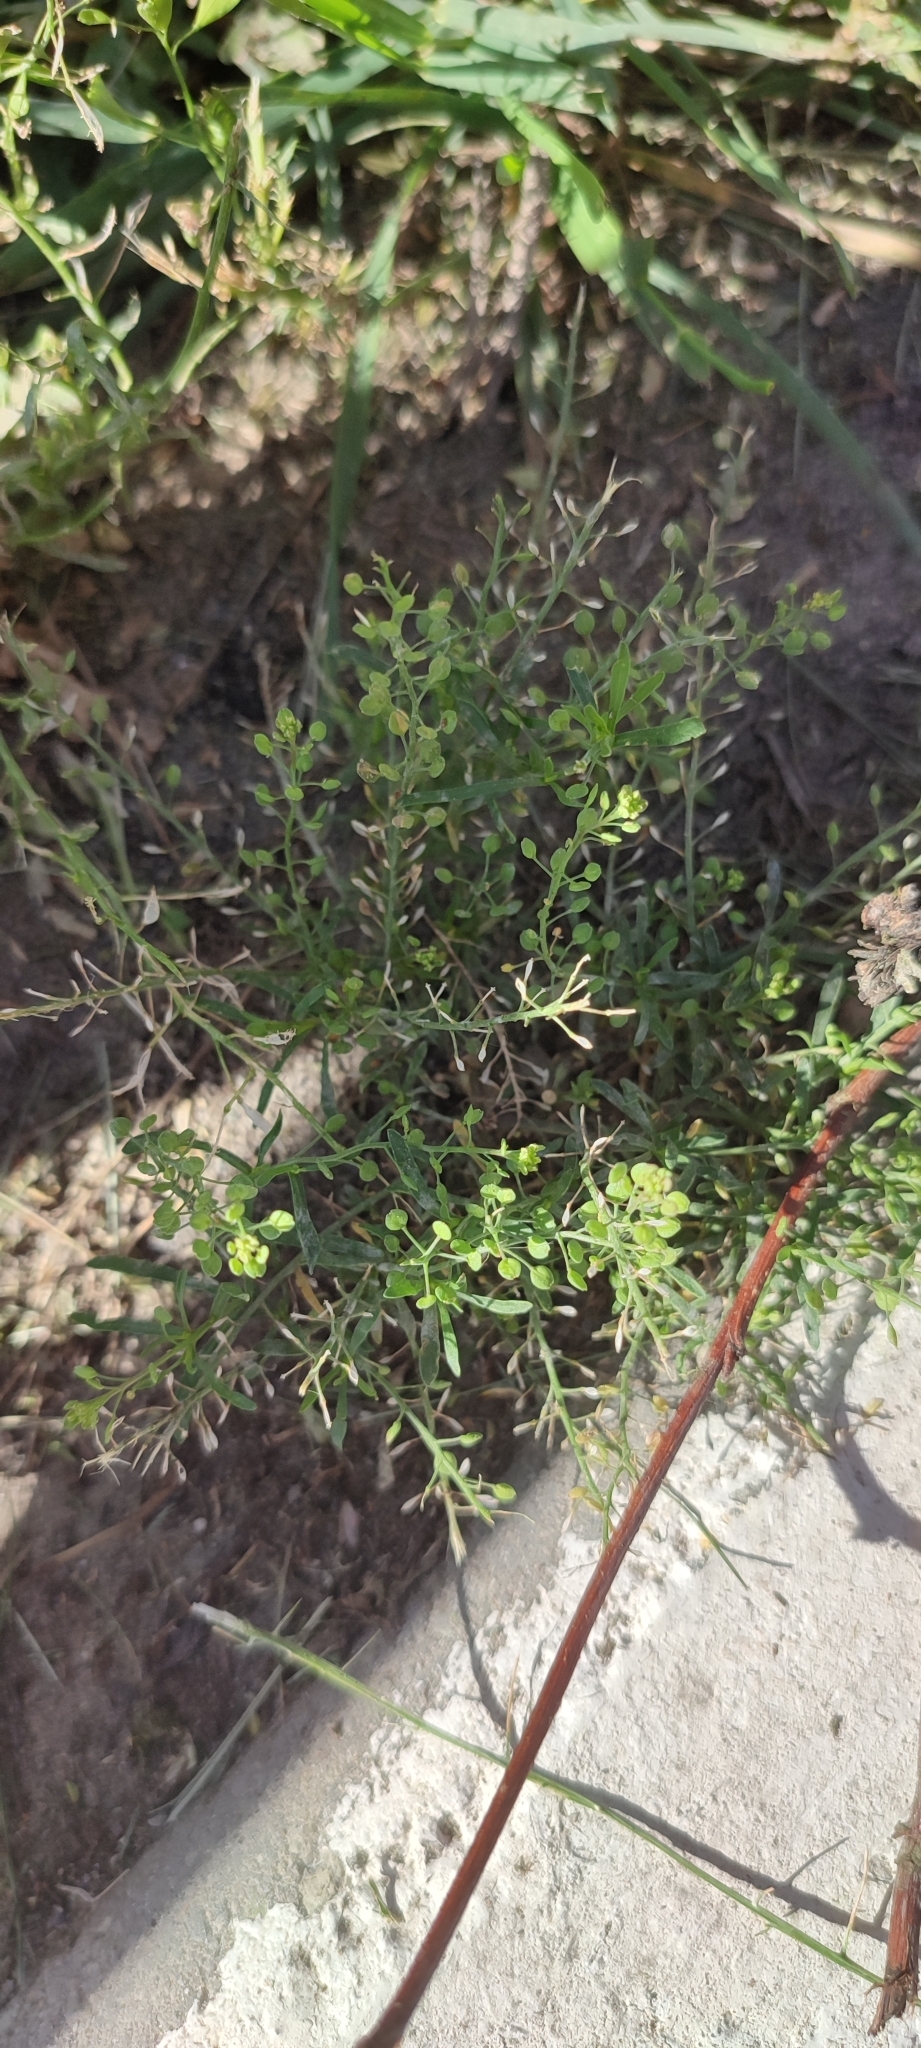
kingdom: Plantae
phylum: Tracheophyta
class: Magnoliopsida
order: Brassicales
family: Brassicaceae
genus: Lepidium
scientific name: Lepidium densiflorum
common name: Miner's pepperwort
